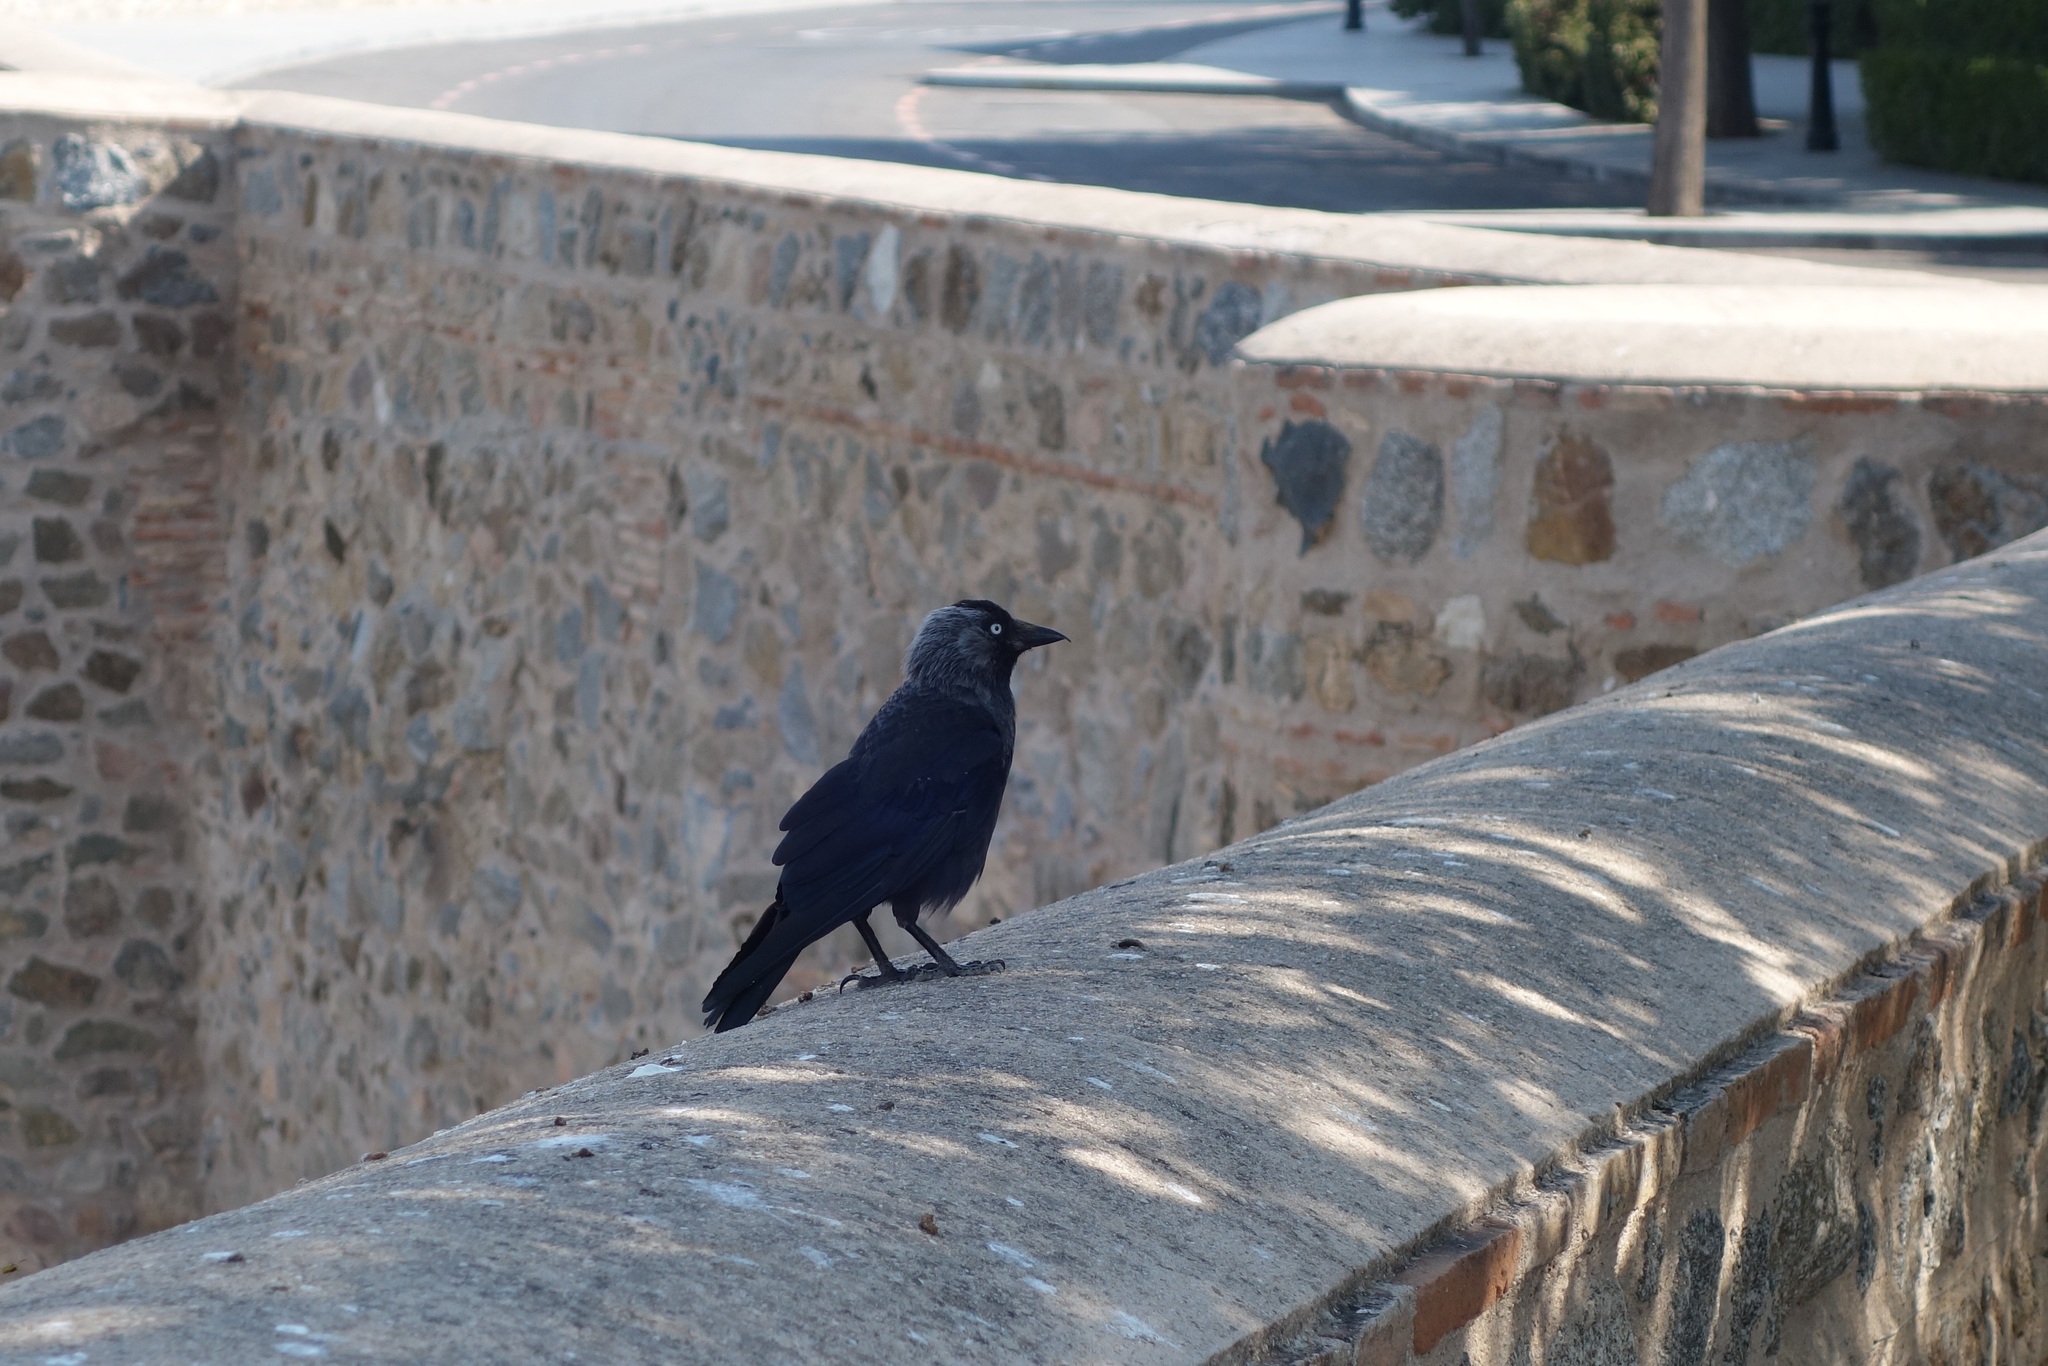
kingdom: Animalia
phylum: Chordata
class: Aves
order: Passeriformes
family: Corvidae
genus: Coloeus
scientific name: Coloeus monedula
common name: Western jackdaw
